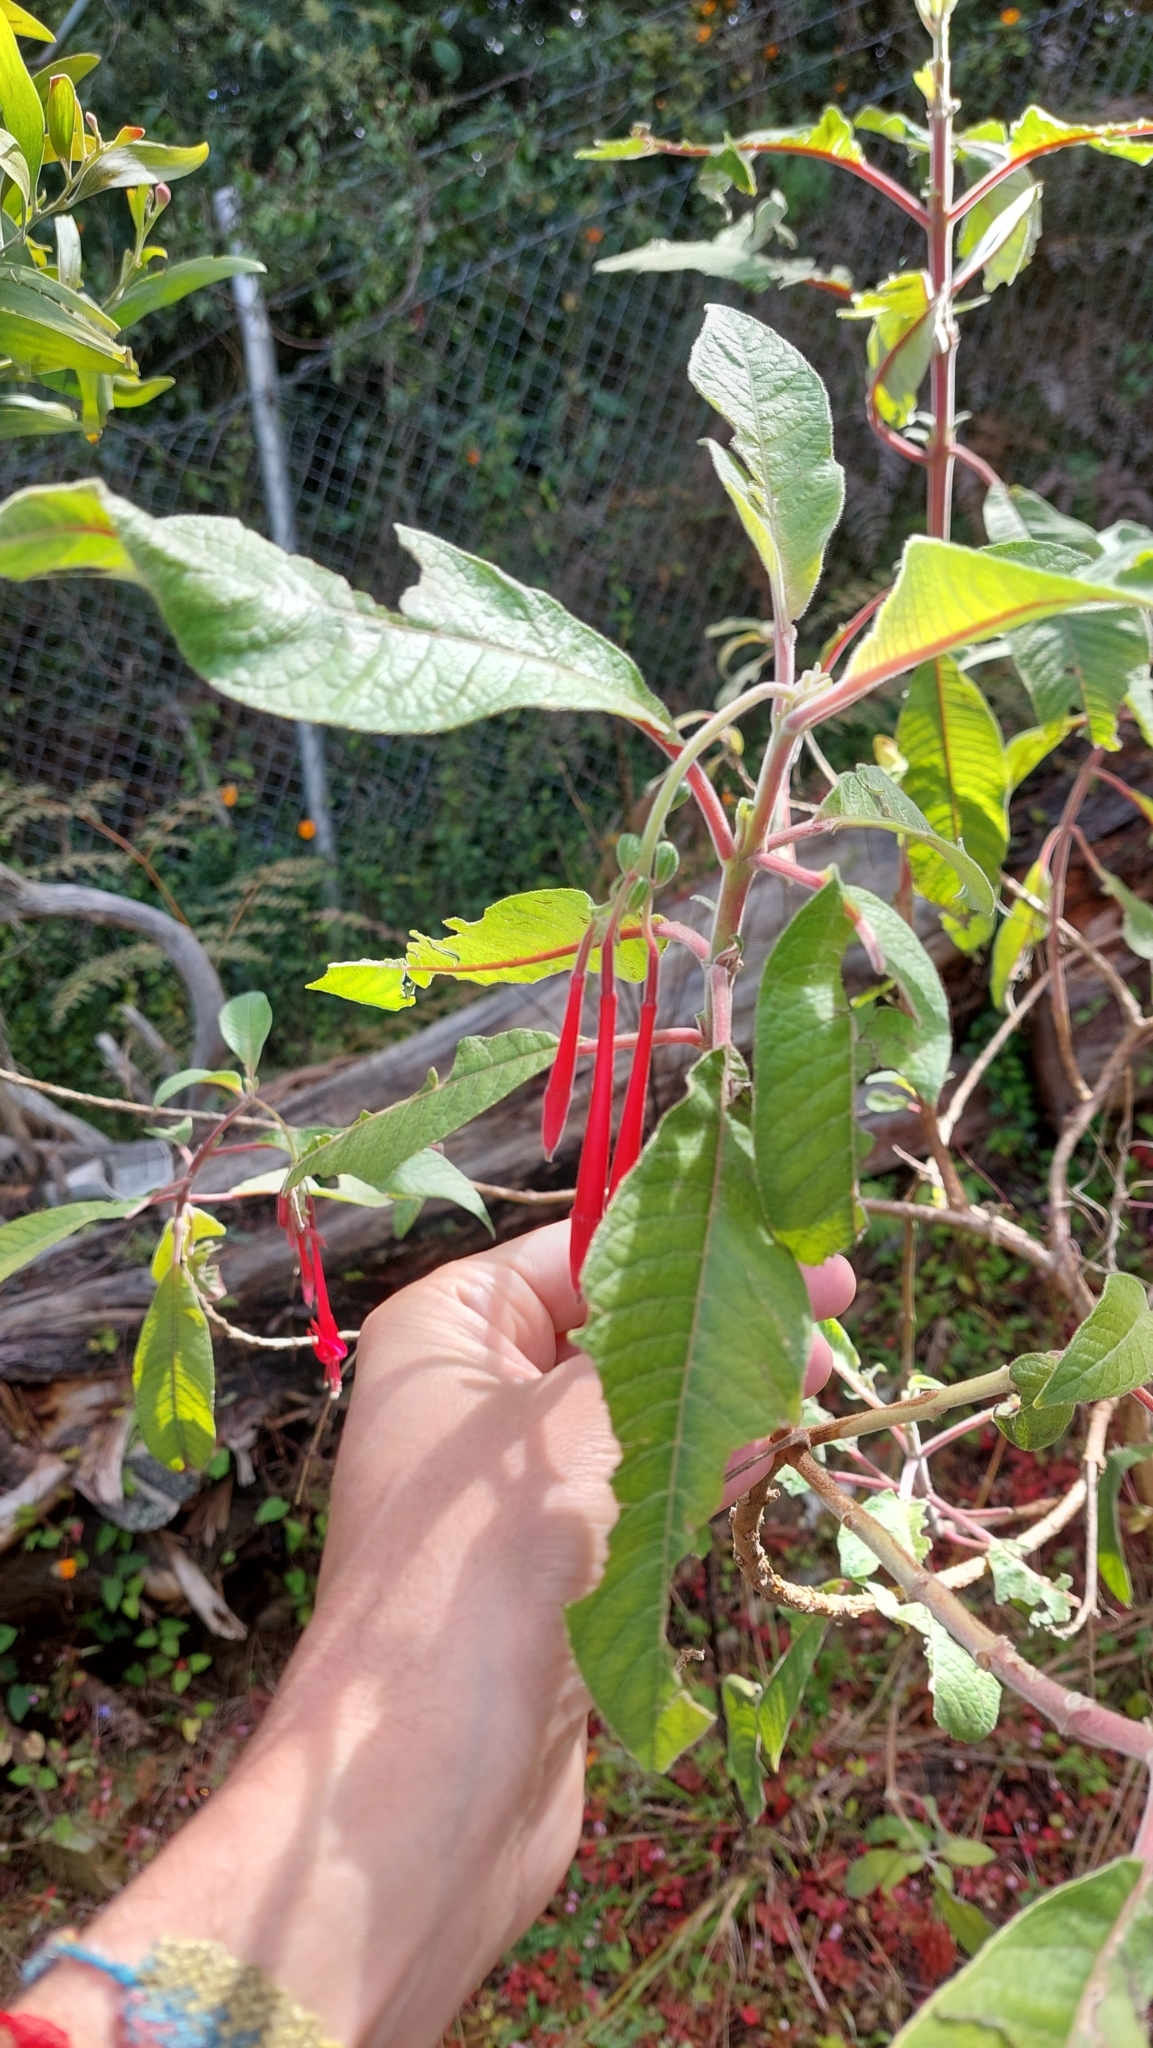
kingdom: Plantae
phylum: Tracheophyta
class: Magnoliopsida
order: Myrtales
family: Onagraceae
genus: Fuchsia
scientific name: Fuchsia boliviana
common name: Bolivian fuchsia
